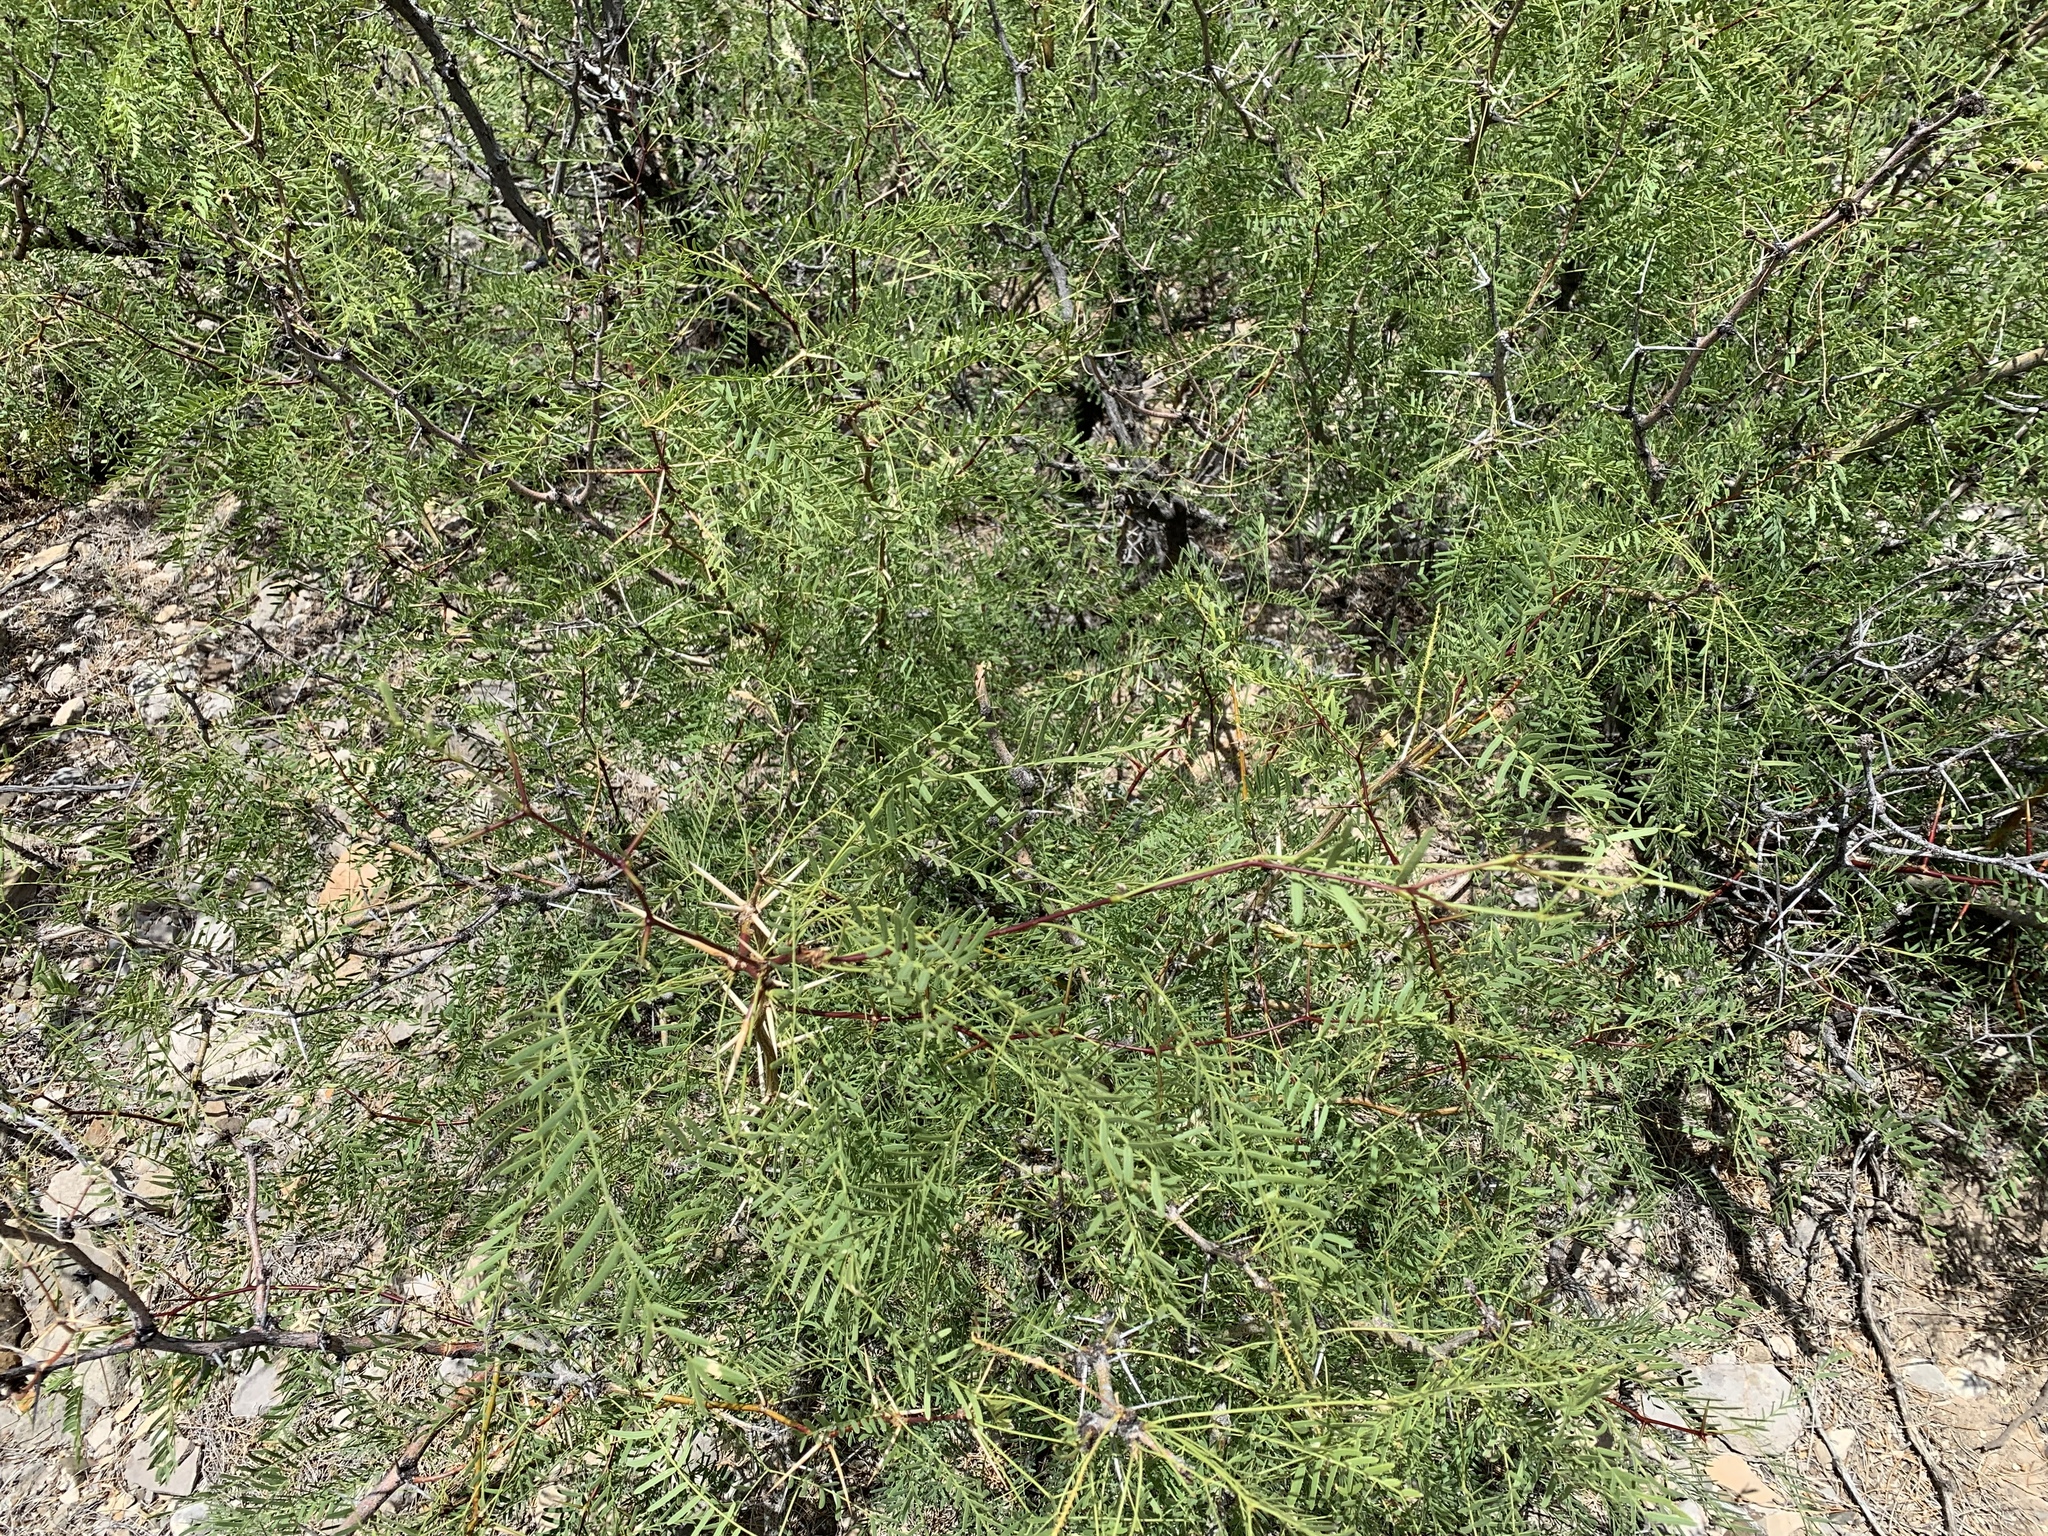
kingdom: Plantae
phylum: Tracheophyta
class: Magnoliopsida
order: Fabales
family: Fabaceae
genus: Prosopis
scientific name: Prosopis glandulosa
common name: Honey mesquite
